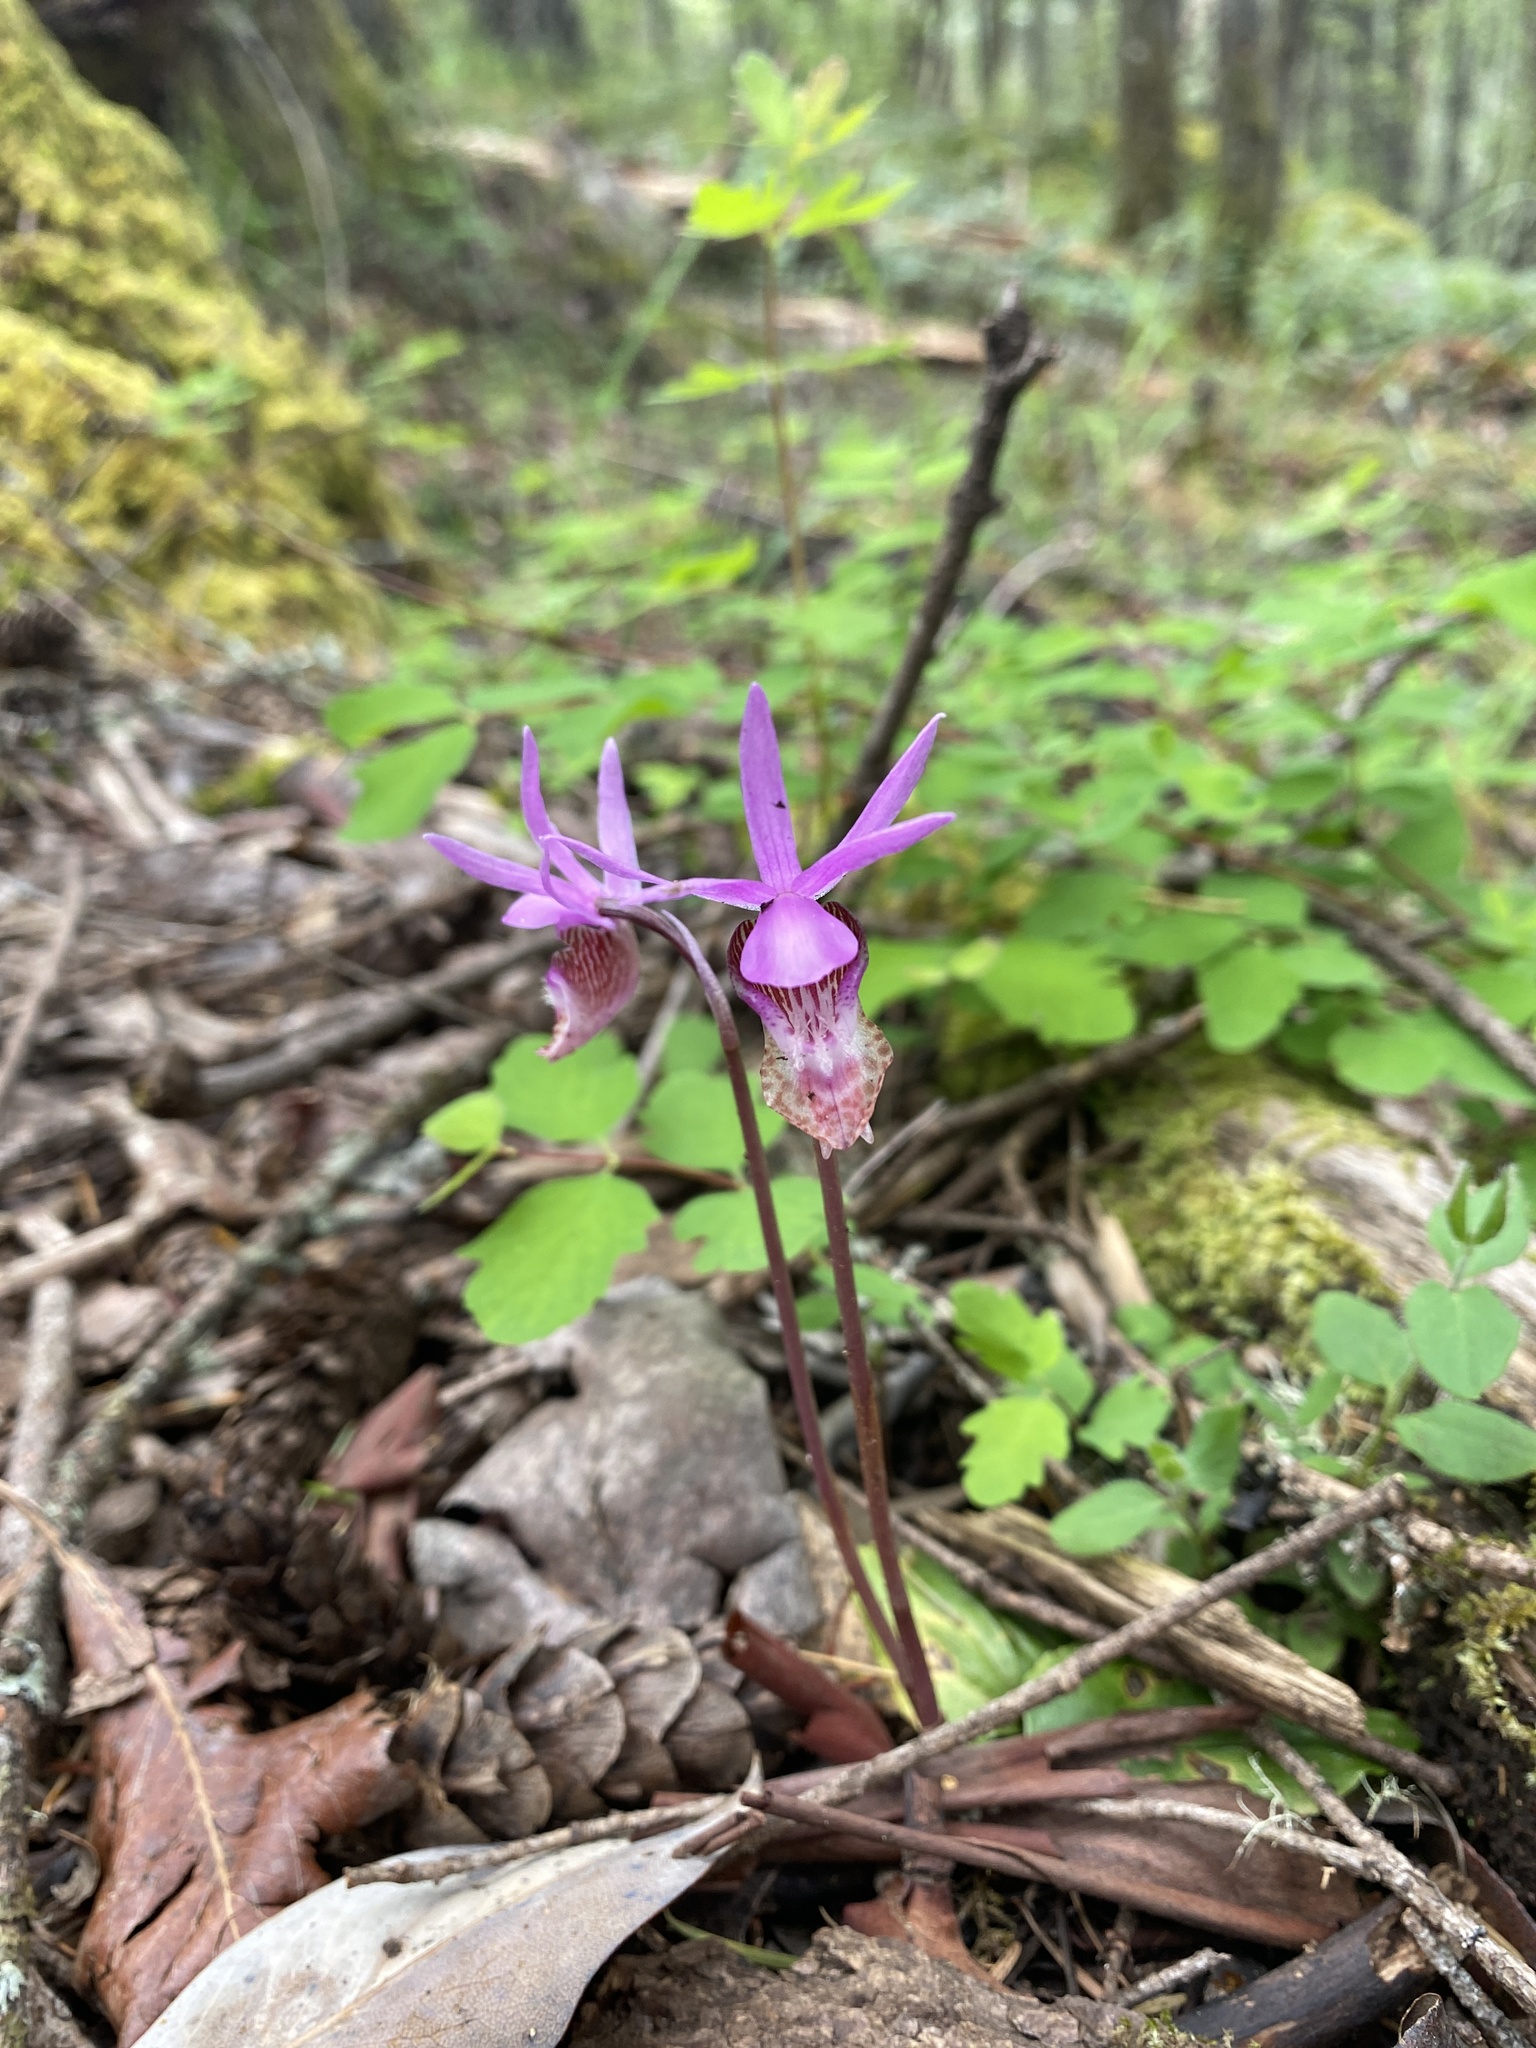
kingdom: Plantae
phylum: Tracheophyta
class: Liliopsida
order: Asparagales
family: Orchidaceae
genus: Calypso
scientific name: Calypso bulbosa
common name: Calypso
